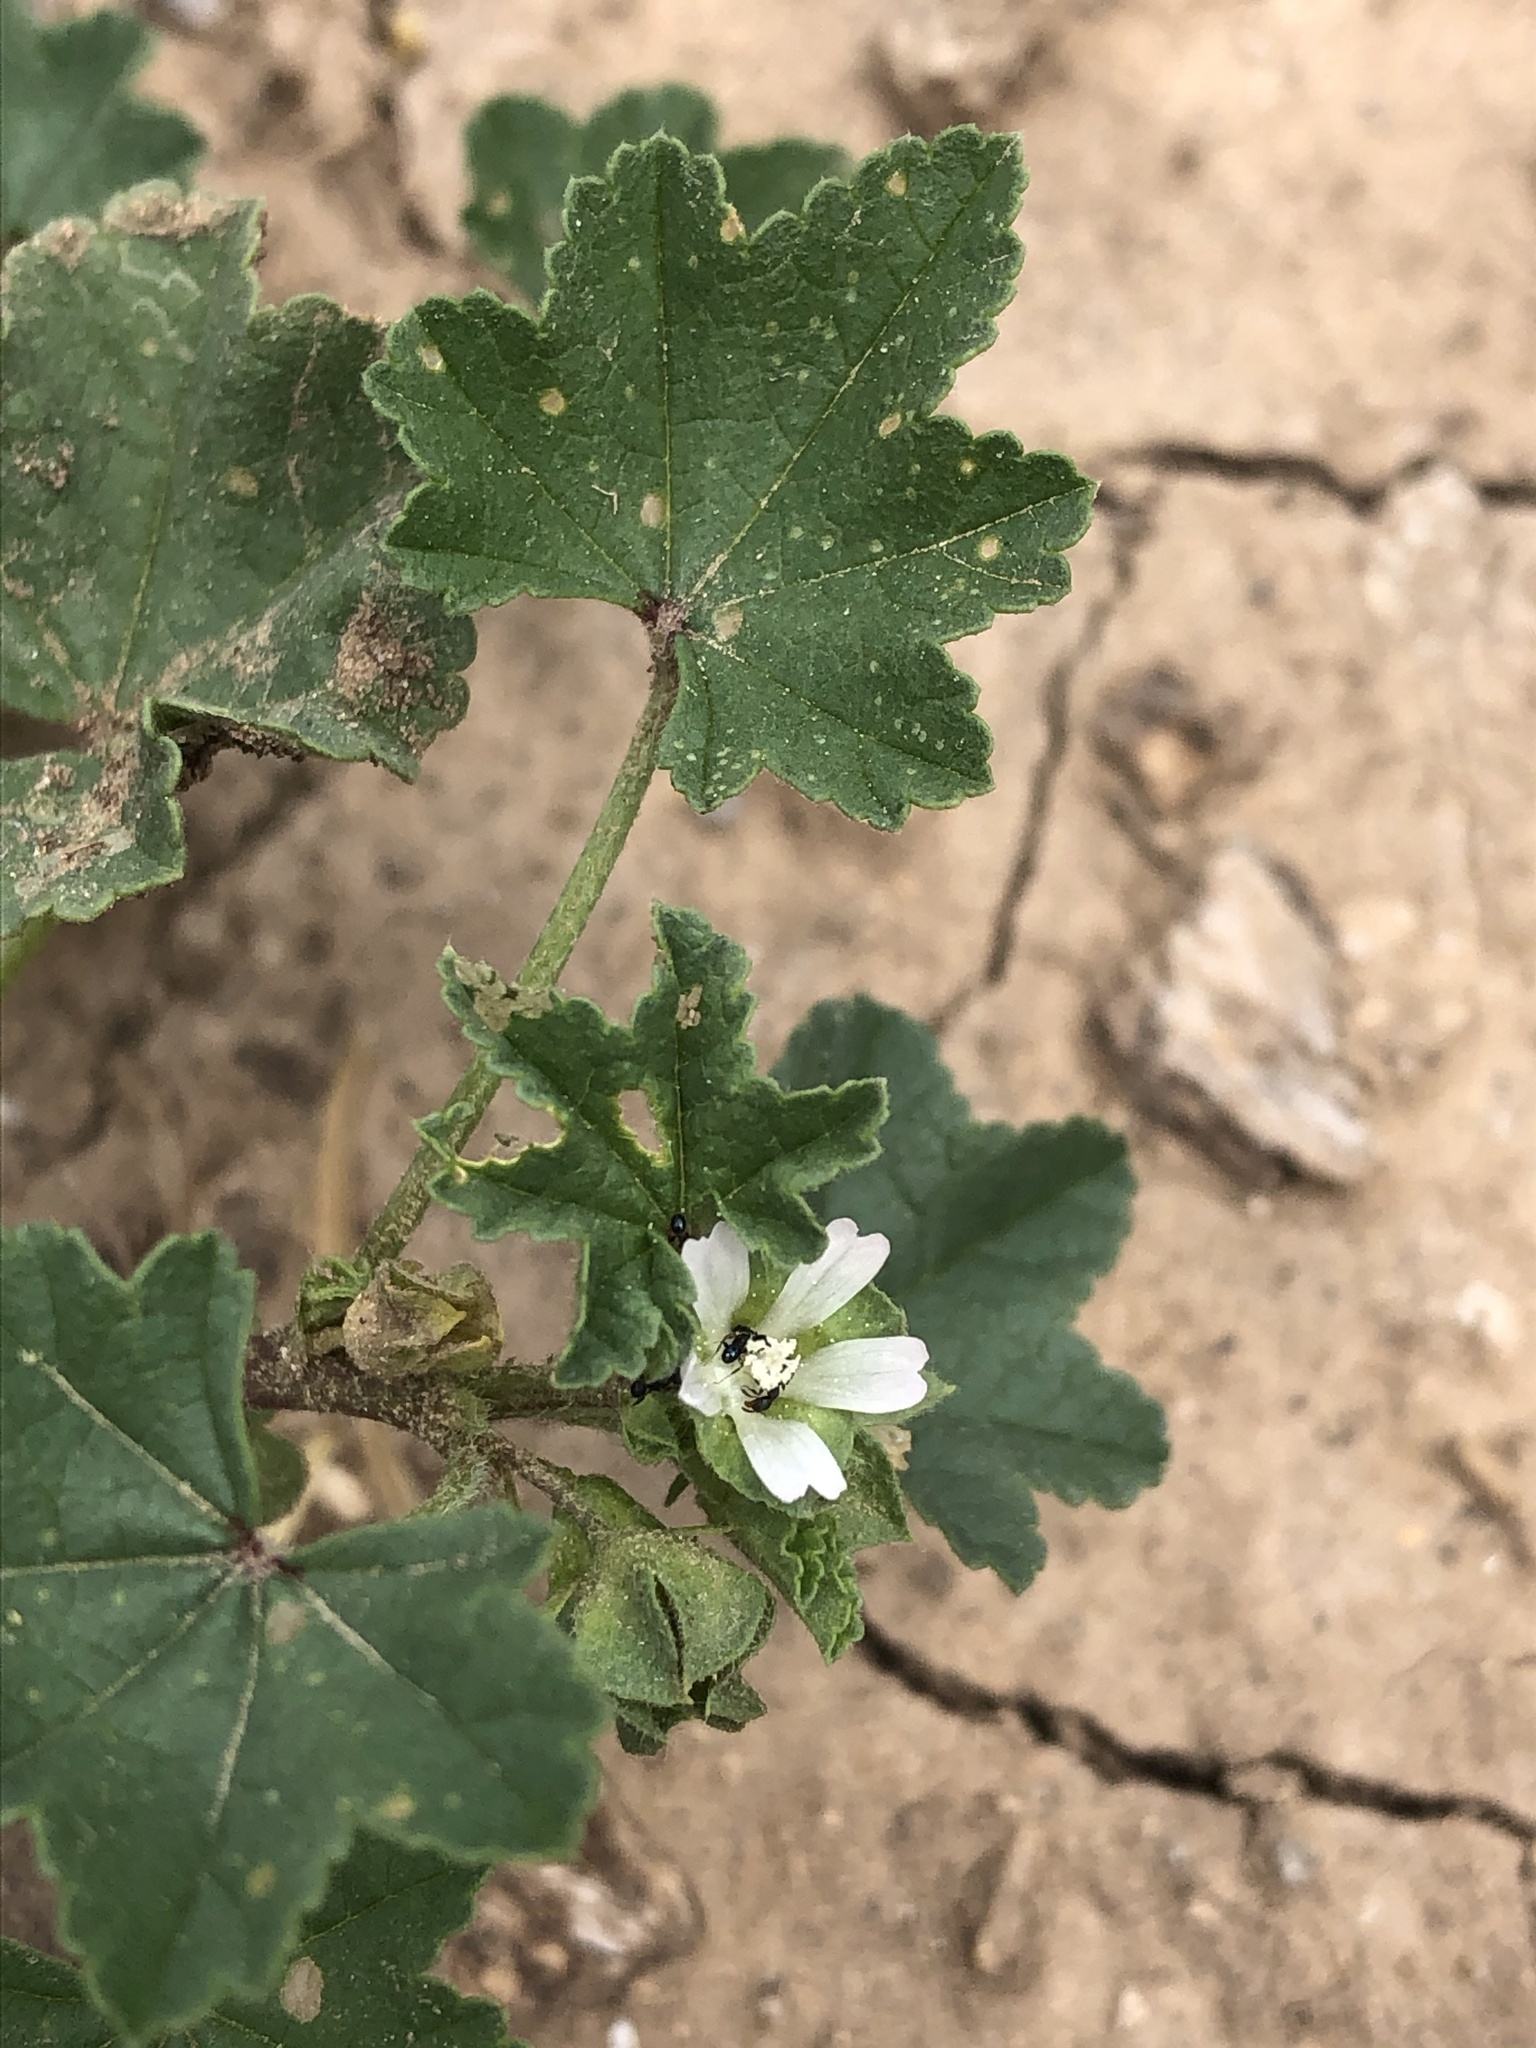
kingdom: Plantae
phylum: Tracheophyta
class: Magnoliopsida
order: Malvales
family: Malvaceae
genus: Malva
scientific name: Malva parviflora
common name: Least mallow
